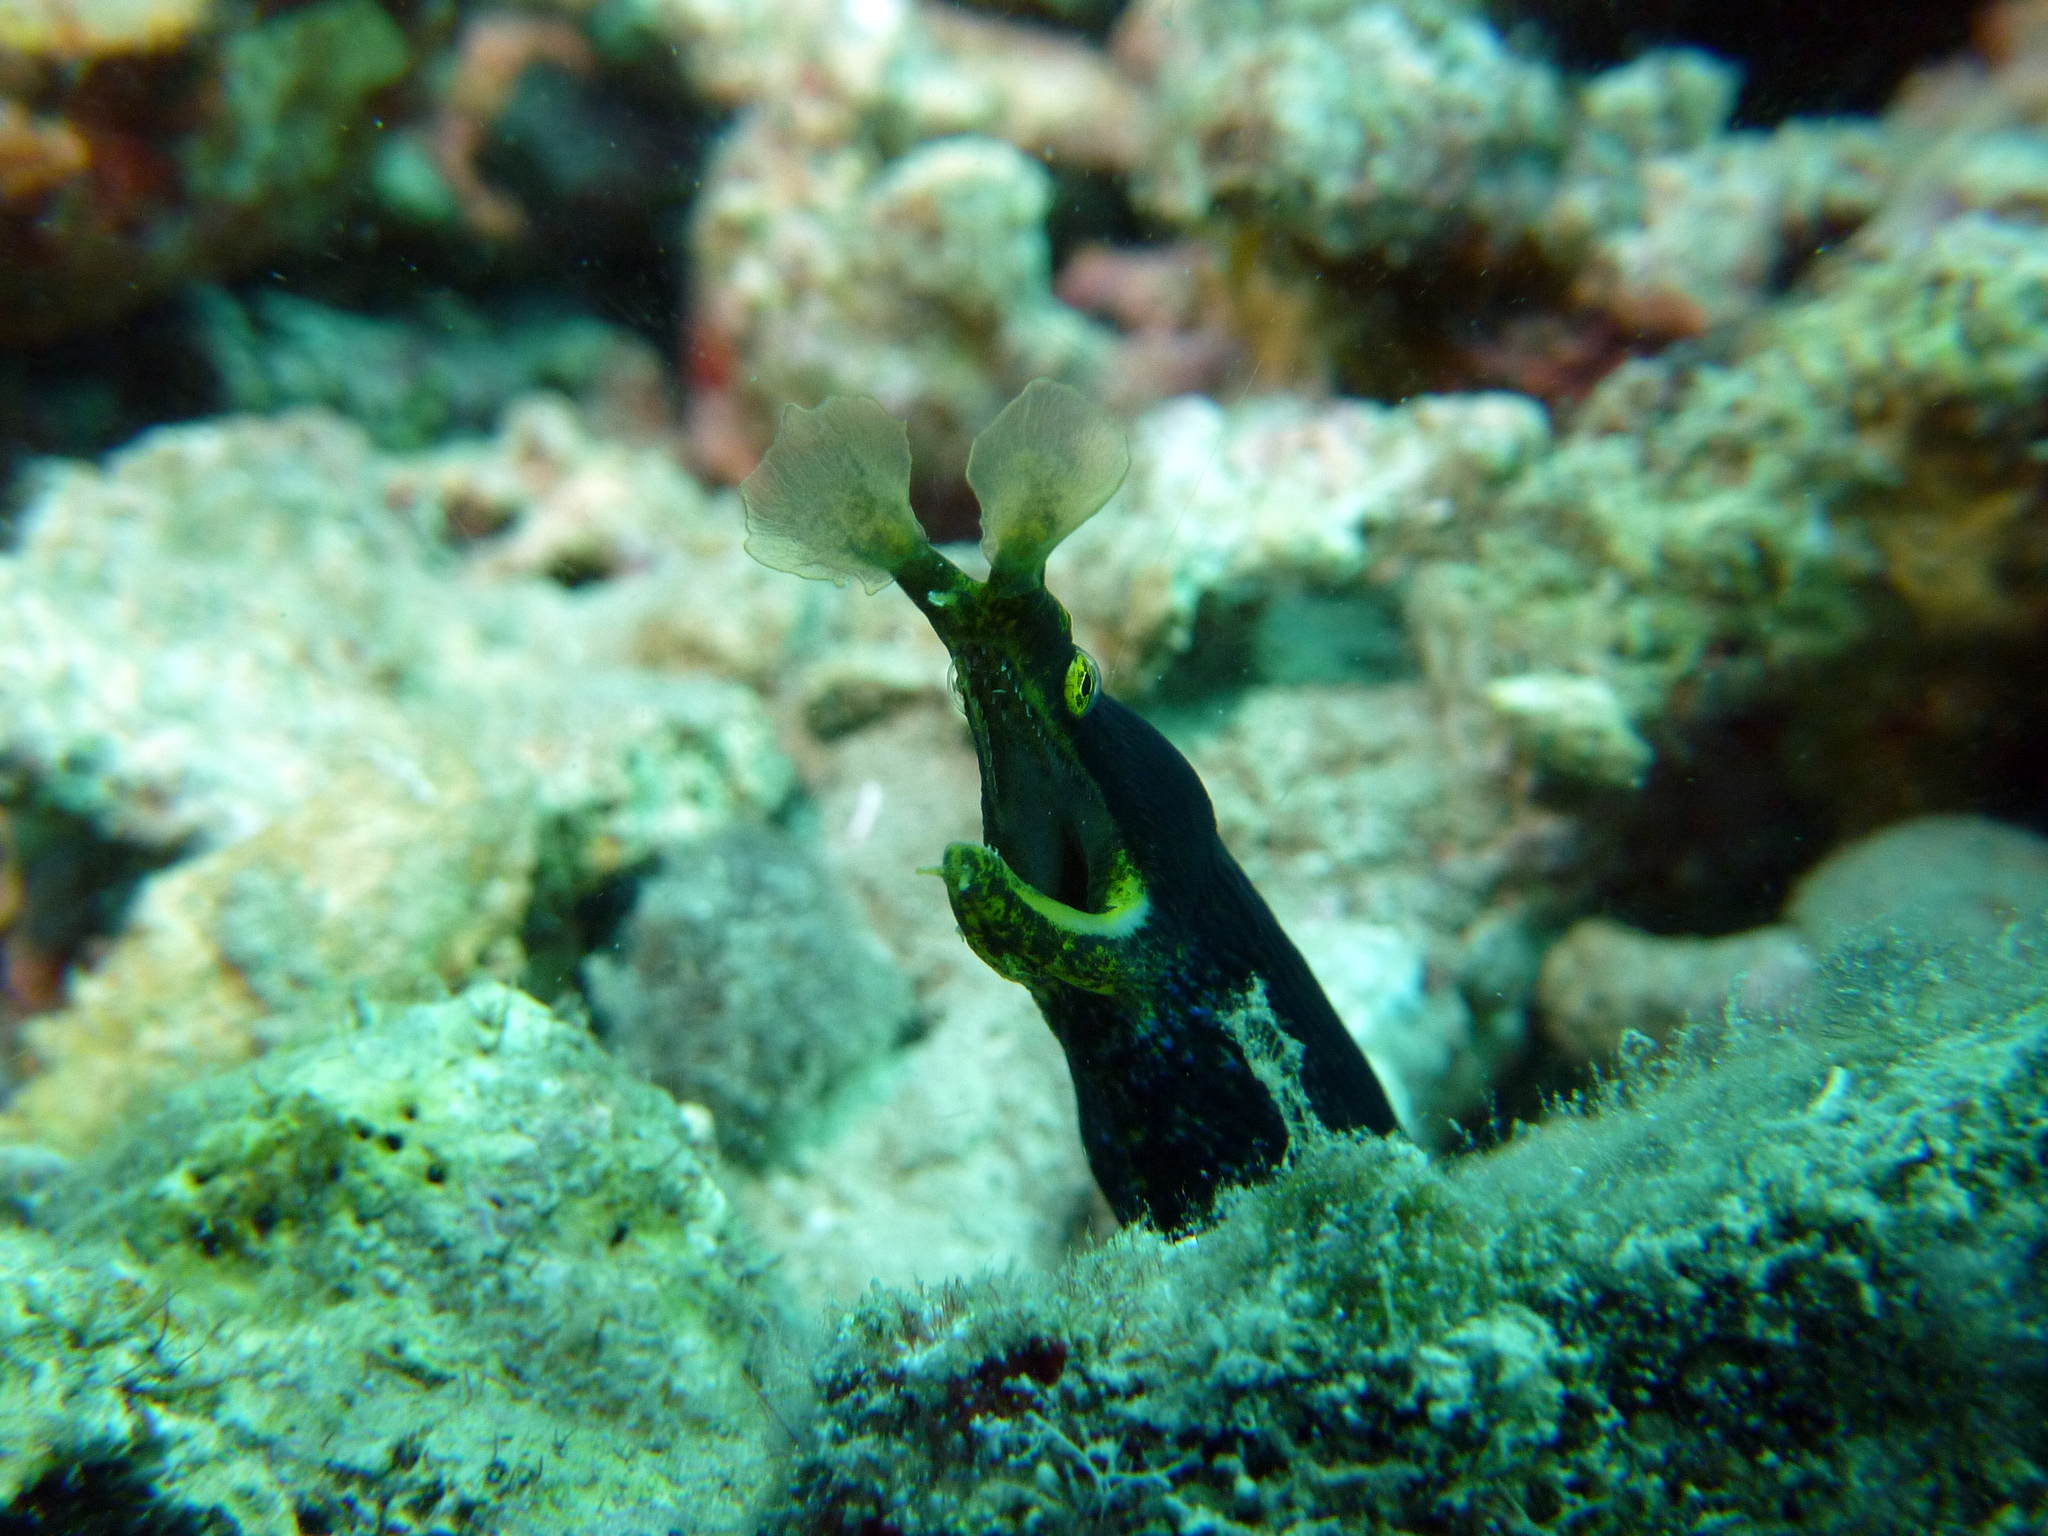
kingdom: Animalia
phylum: Chordata
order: Anguilliformes
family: Muraenidae
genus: Rhinomuraena
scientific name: Rhinomuraena quaesita
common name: Ribbon eel
